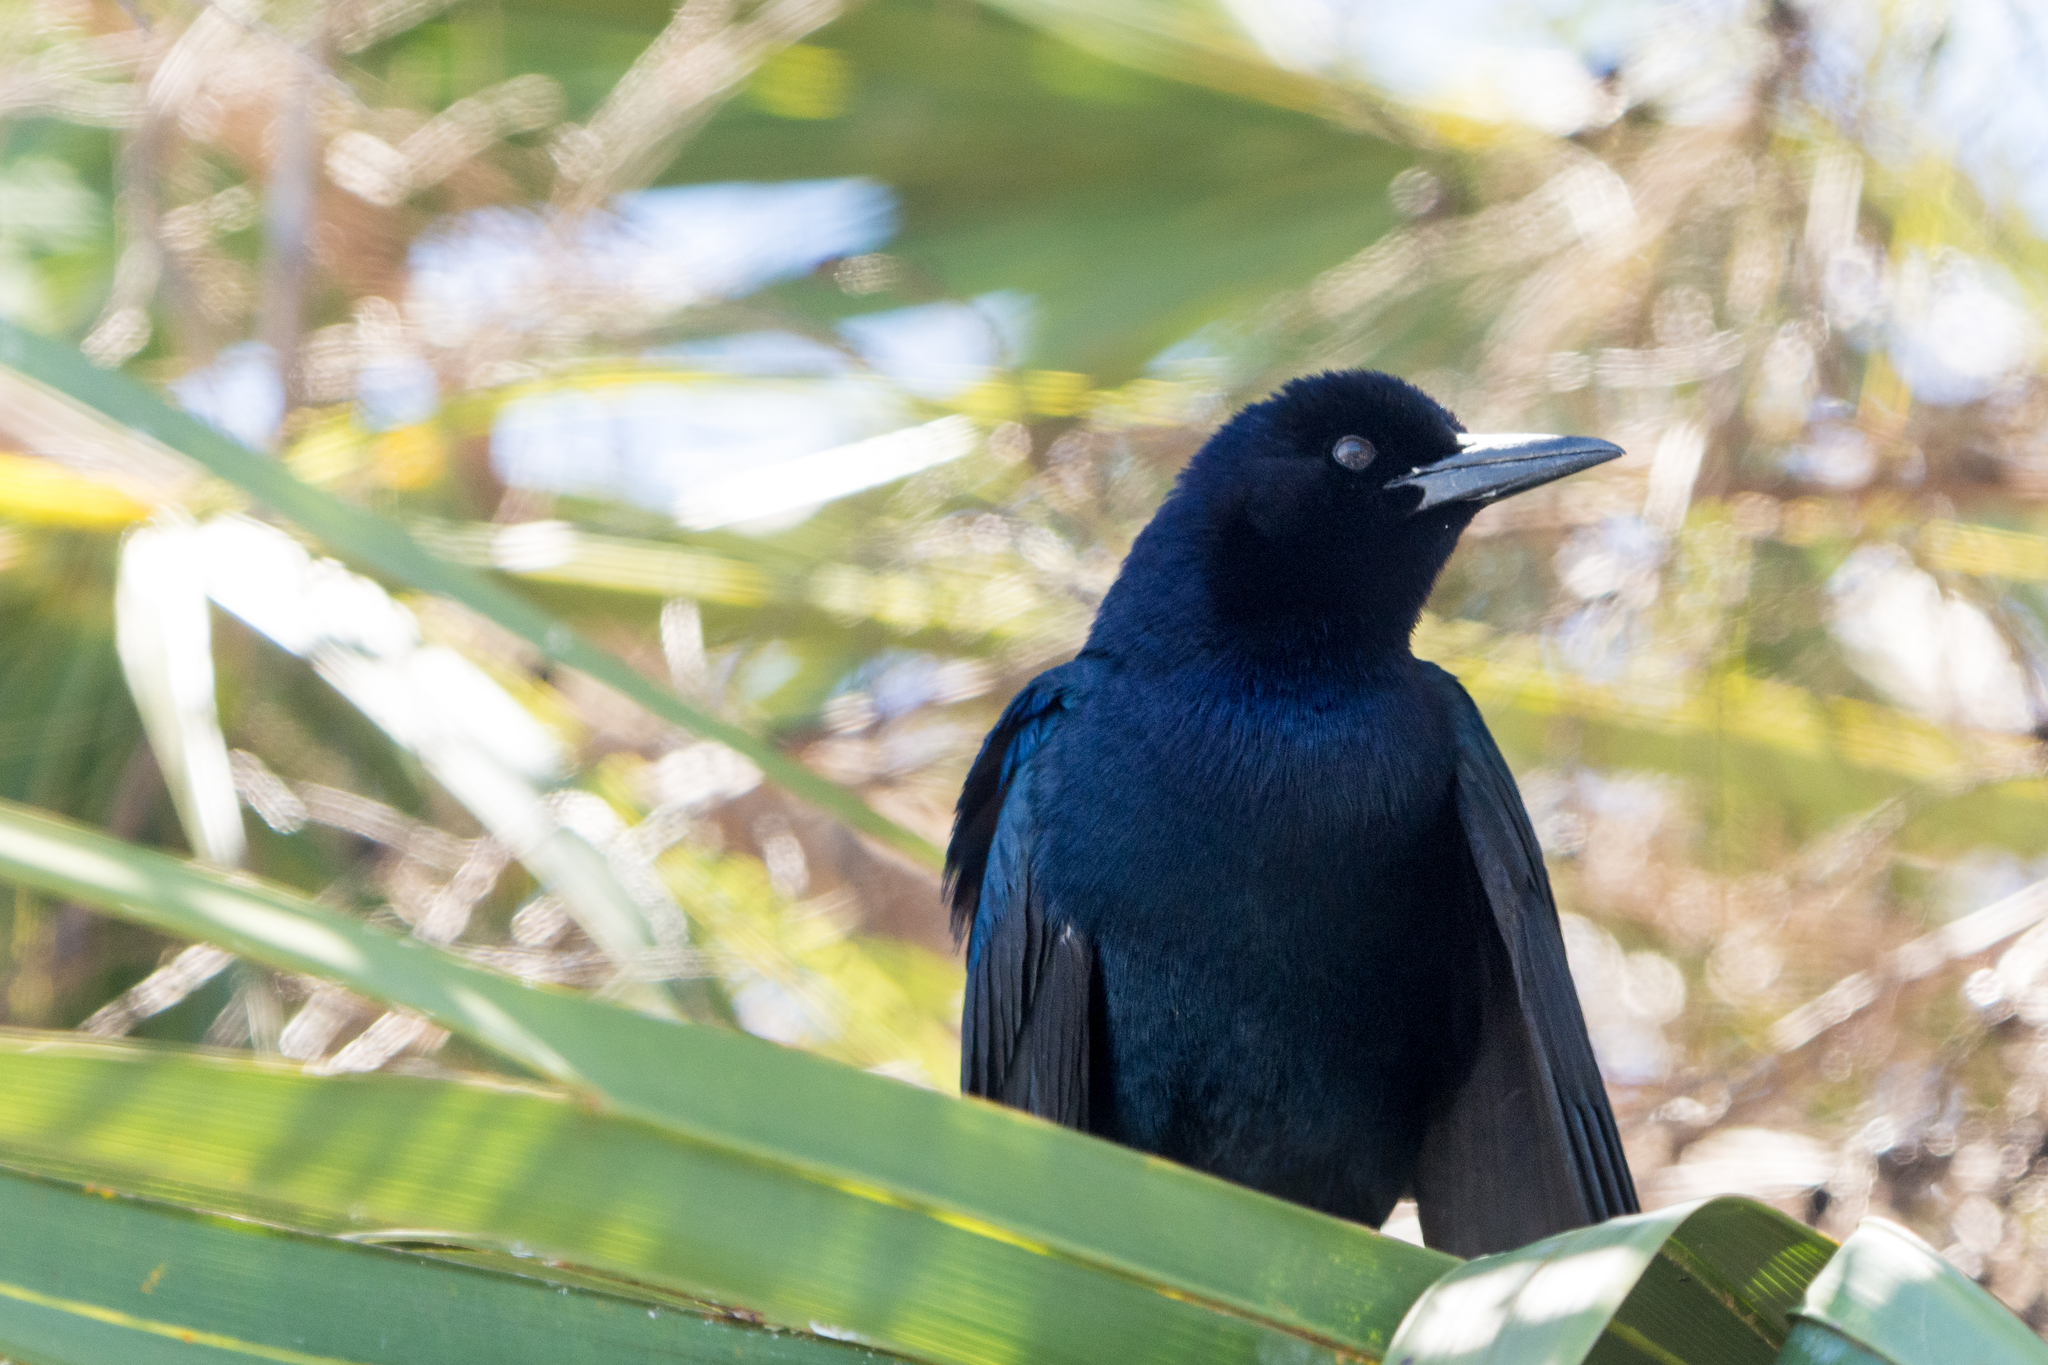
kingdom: Animalia
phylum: Chordata
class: Aves
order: Passeriformes
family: Icteridae
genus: Quiscalus
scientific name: Quiscalus major
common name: Boat-tailed grackle
